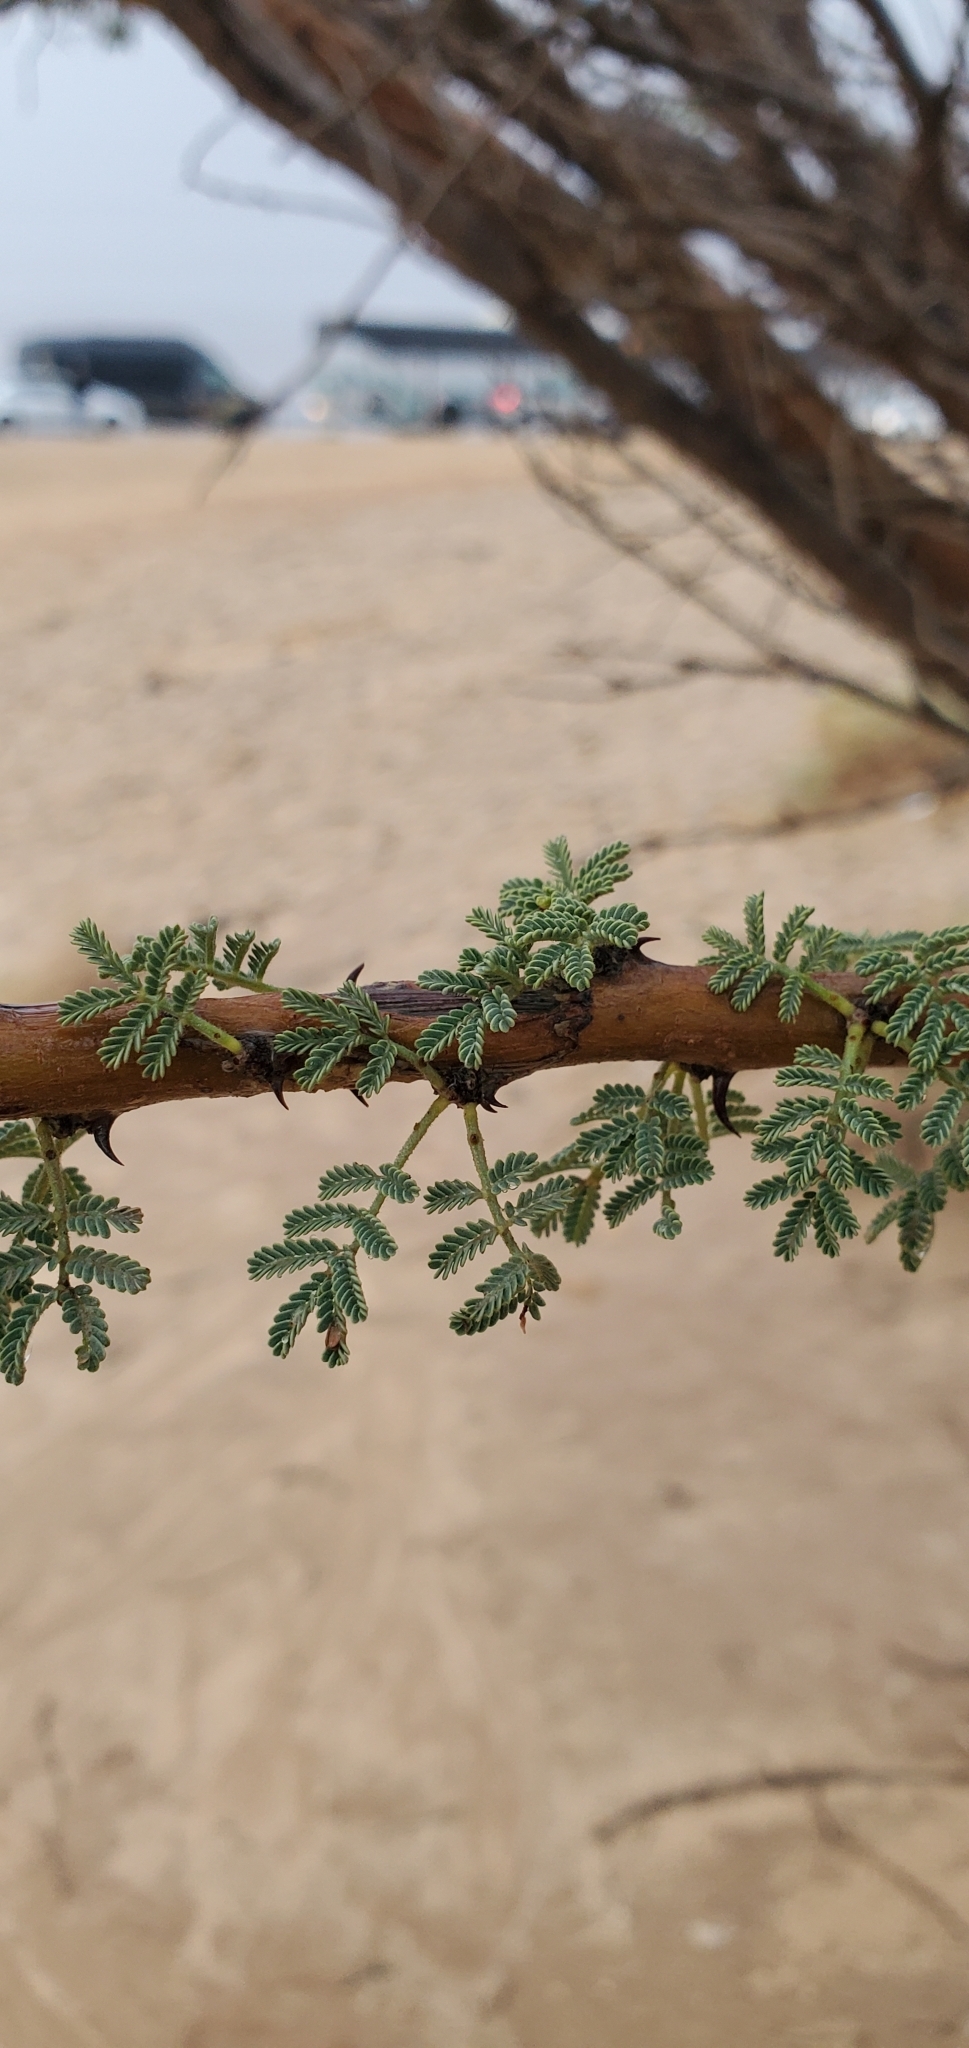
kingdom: Plantae
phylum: Tracheophyta
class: Magnoliopsida
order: Fabales
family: Fabaceae
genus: Vachellia
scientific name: Vachellia tortilis
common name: Umbrella thorn acacia
